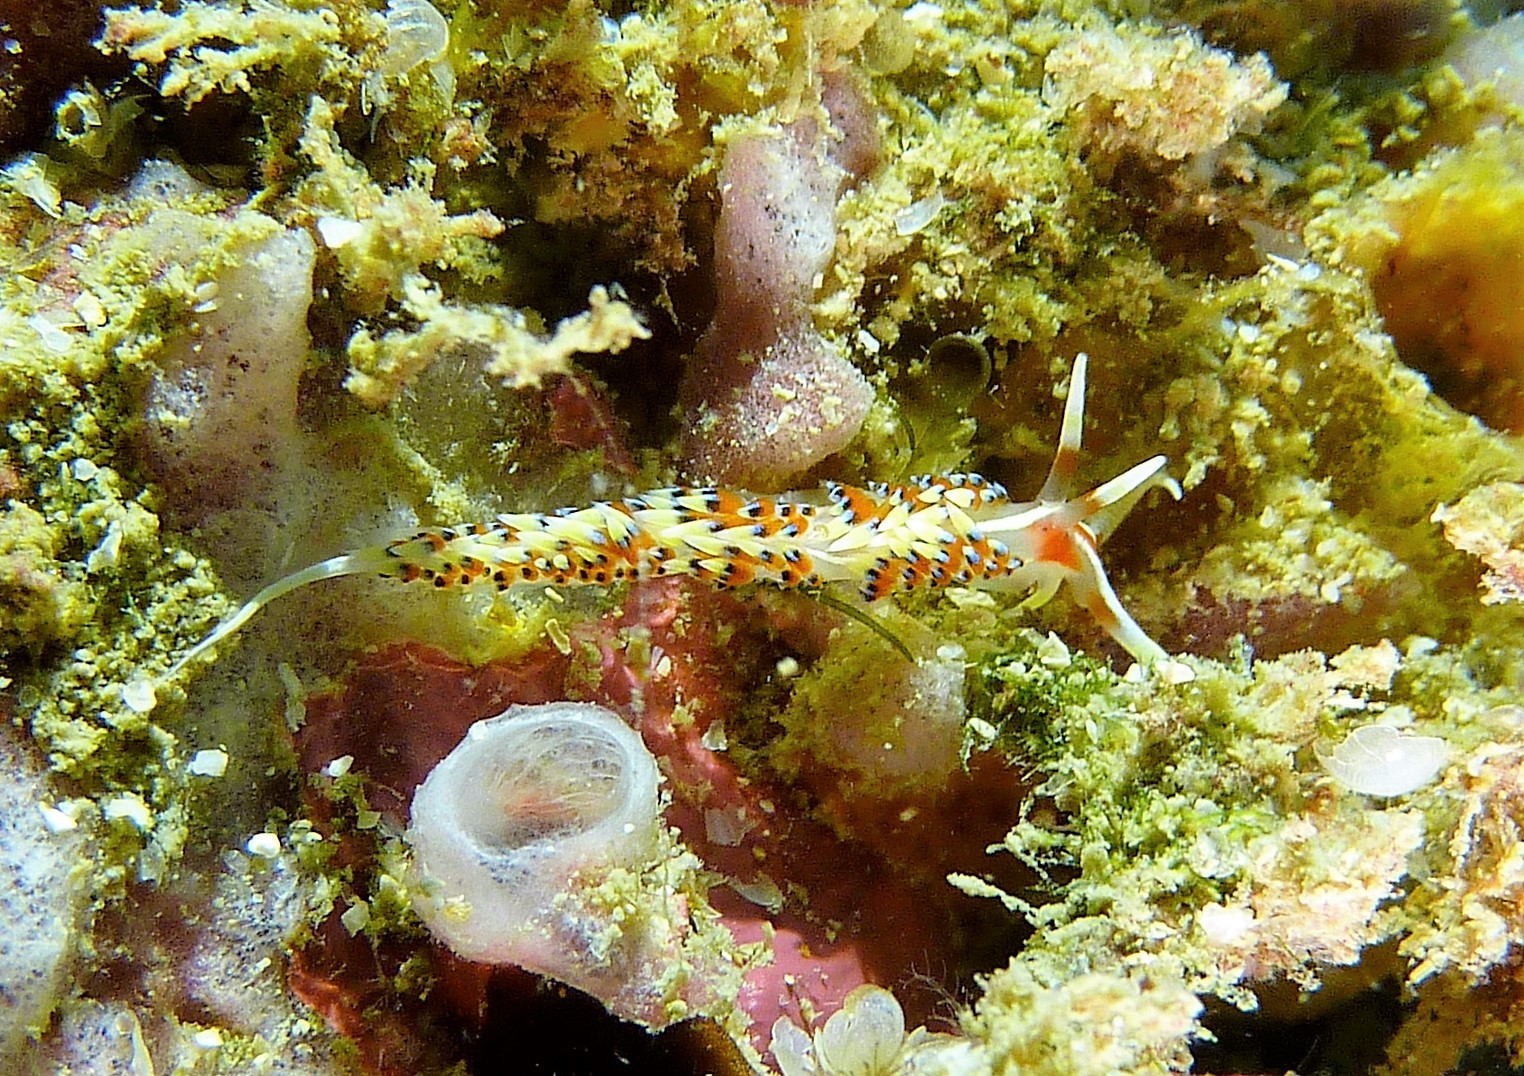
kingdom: Animalia
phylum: Mollusca
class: Gastropoda
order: Nudibranchia
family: Facelinidae
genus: Caloria
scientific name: Caloria indica
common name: Sea slug
